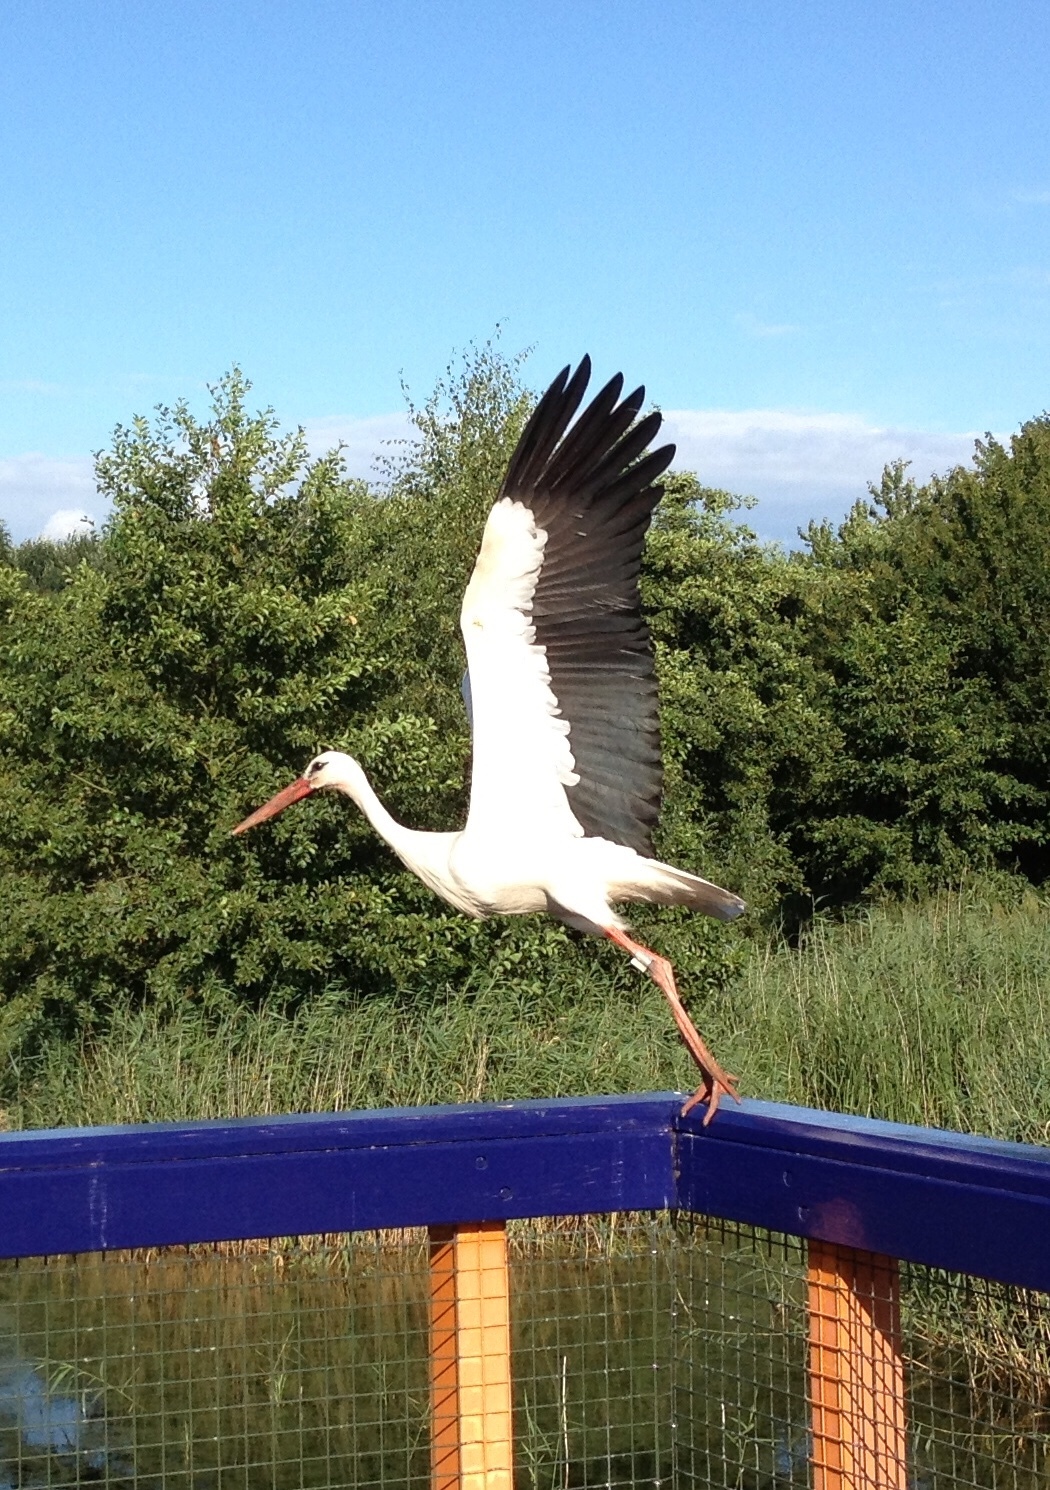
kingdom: Animalia
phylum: Chordata
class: Aves
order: Ciconiiformes
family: Ciconiidae
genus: Ciconia
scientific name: Ciconia ciconia
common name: White stork
